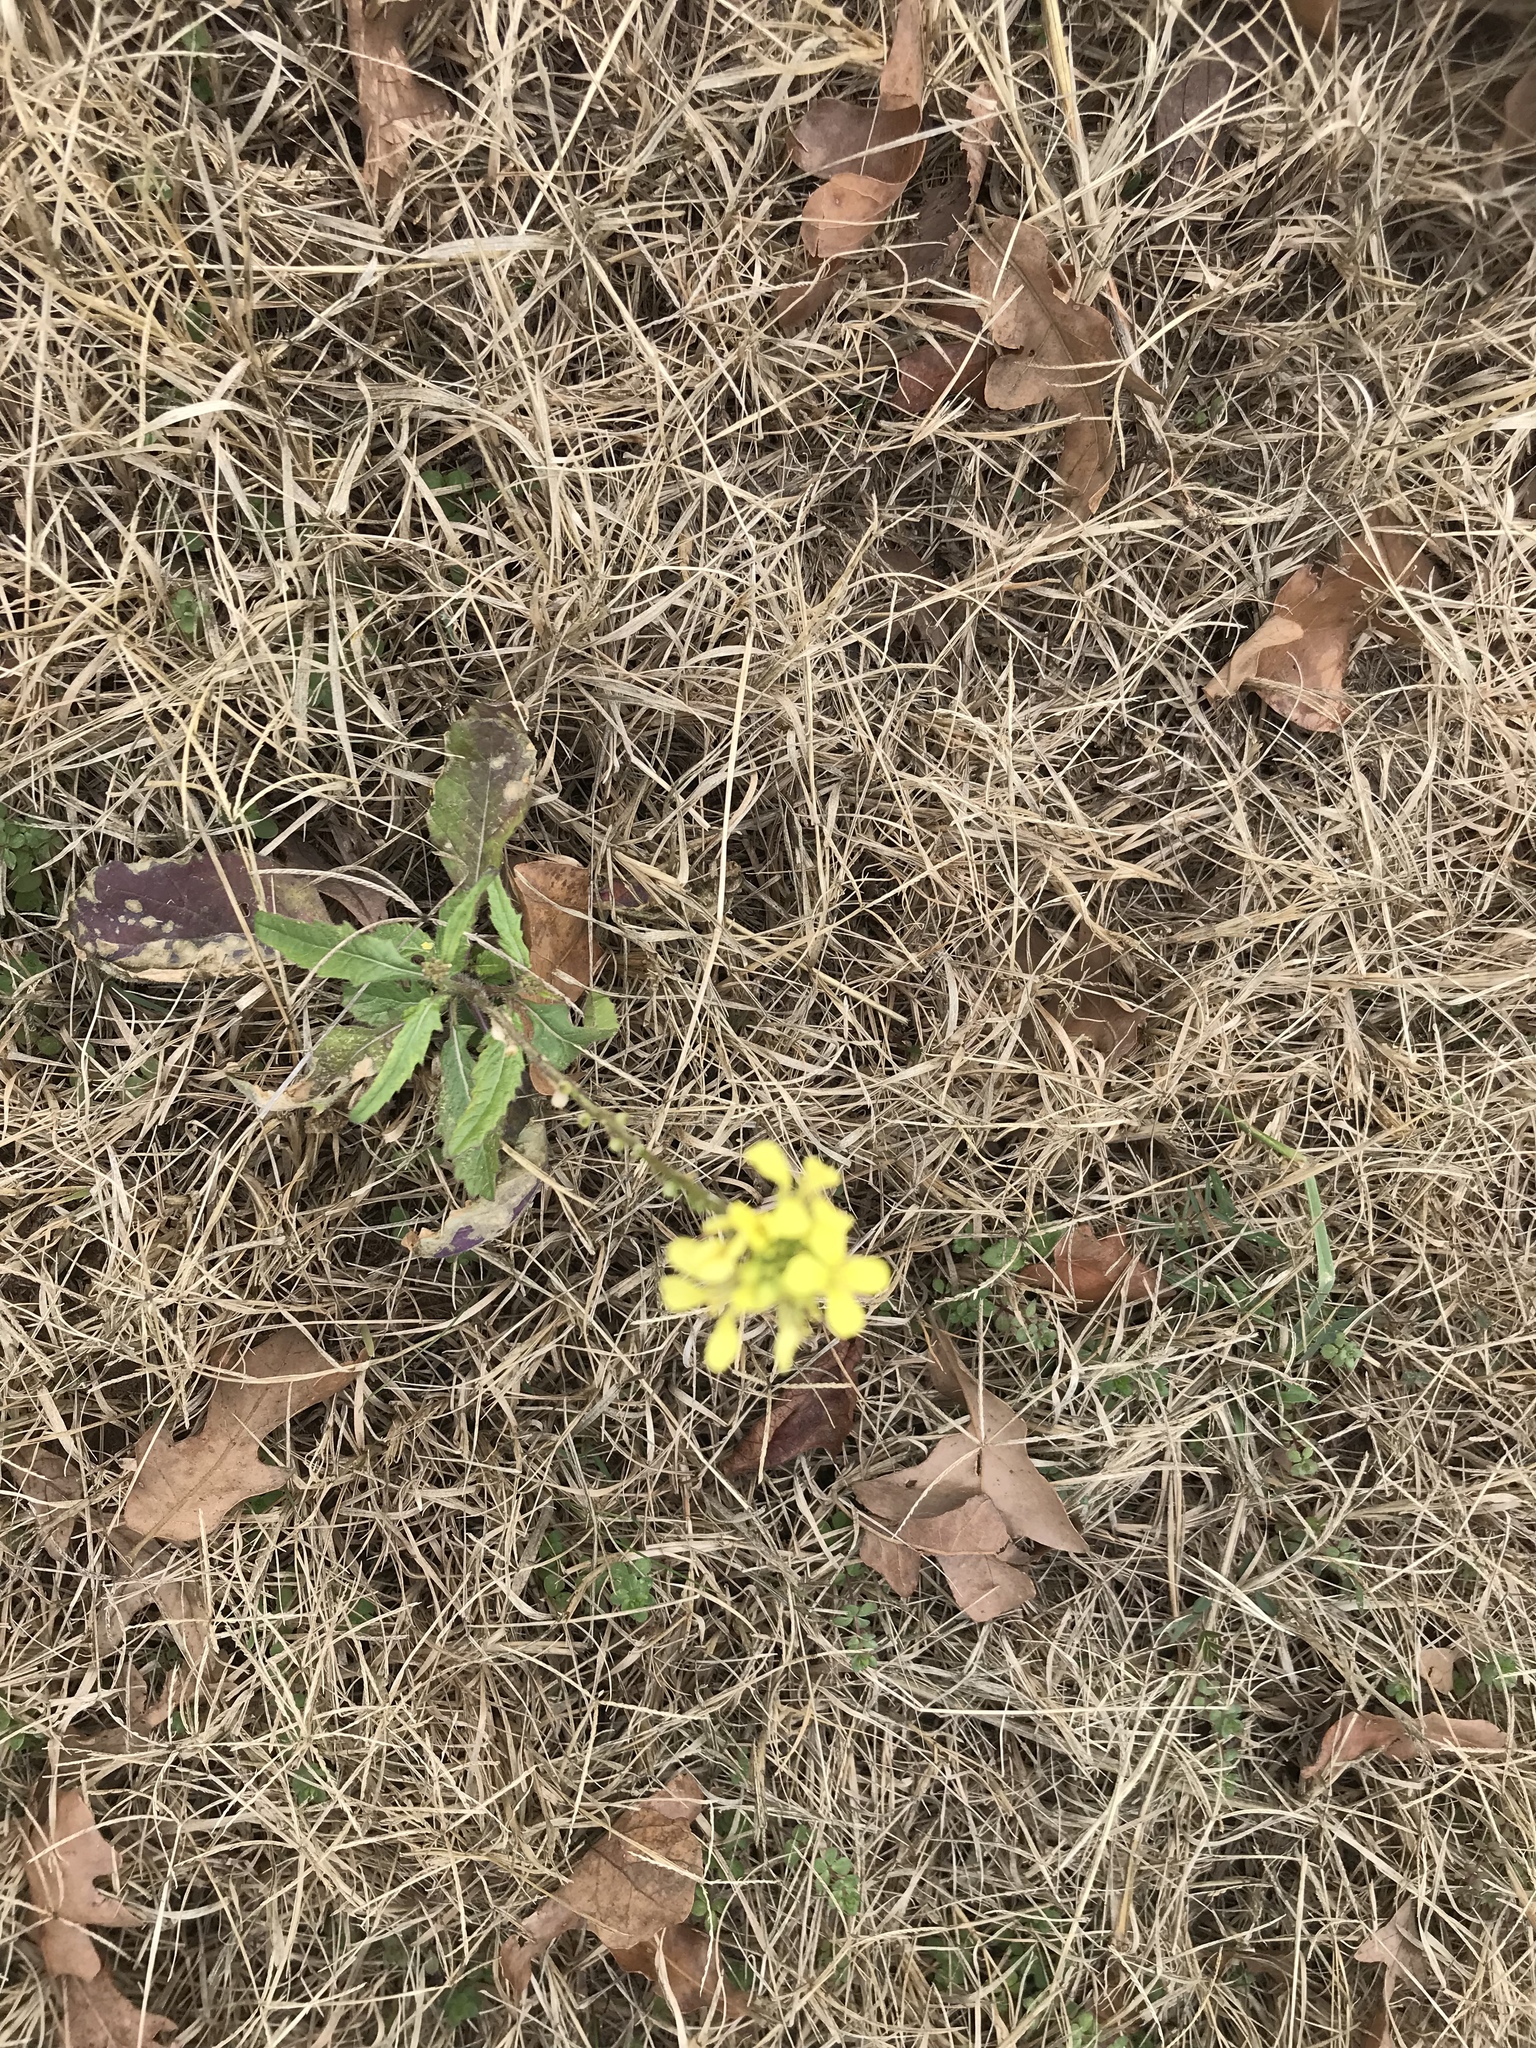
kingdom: Plantae
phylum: Tracheophyta
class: Magnoliopsida
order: Brassicales
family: Brassicaceae
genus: Rapistrum
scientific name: Rapistrum rugosum
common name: Annual bastardcabbage
